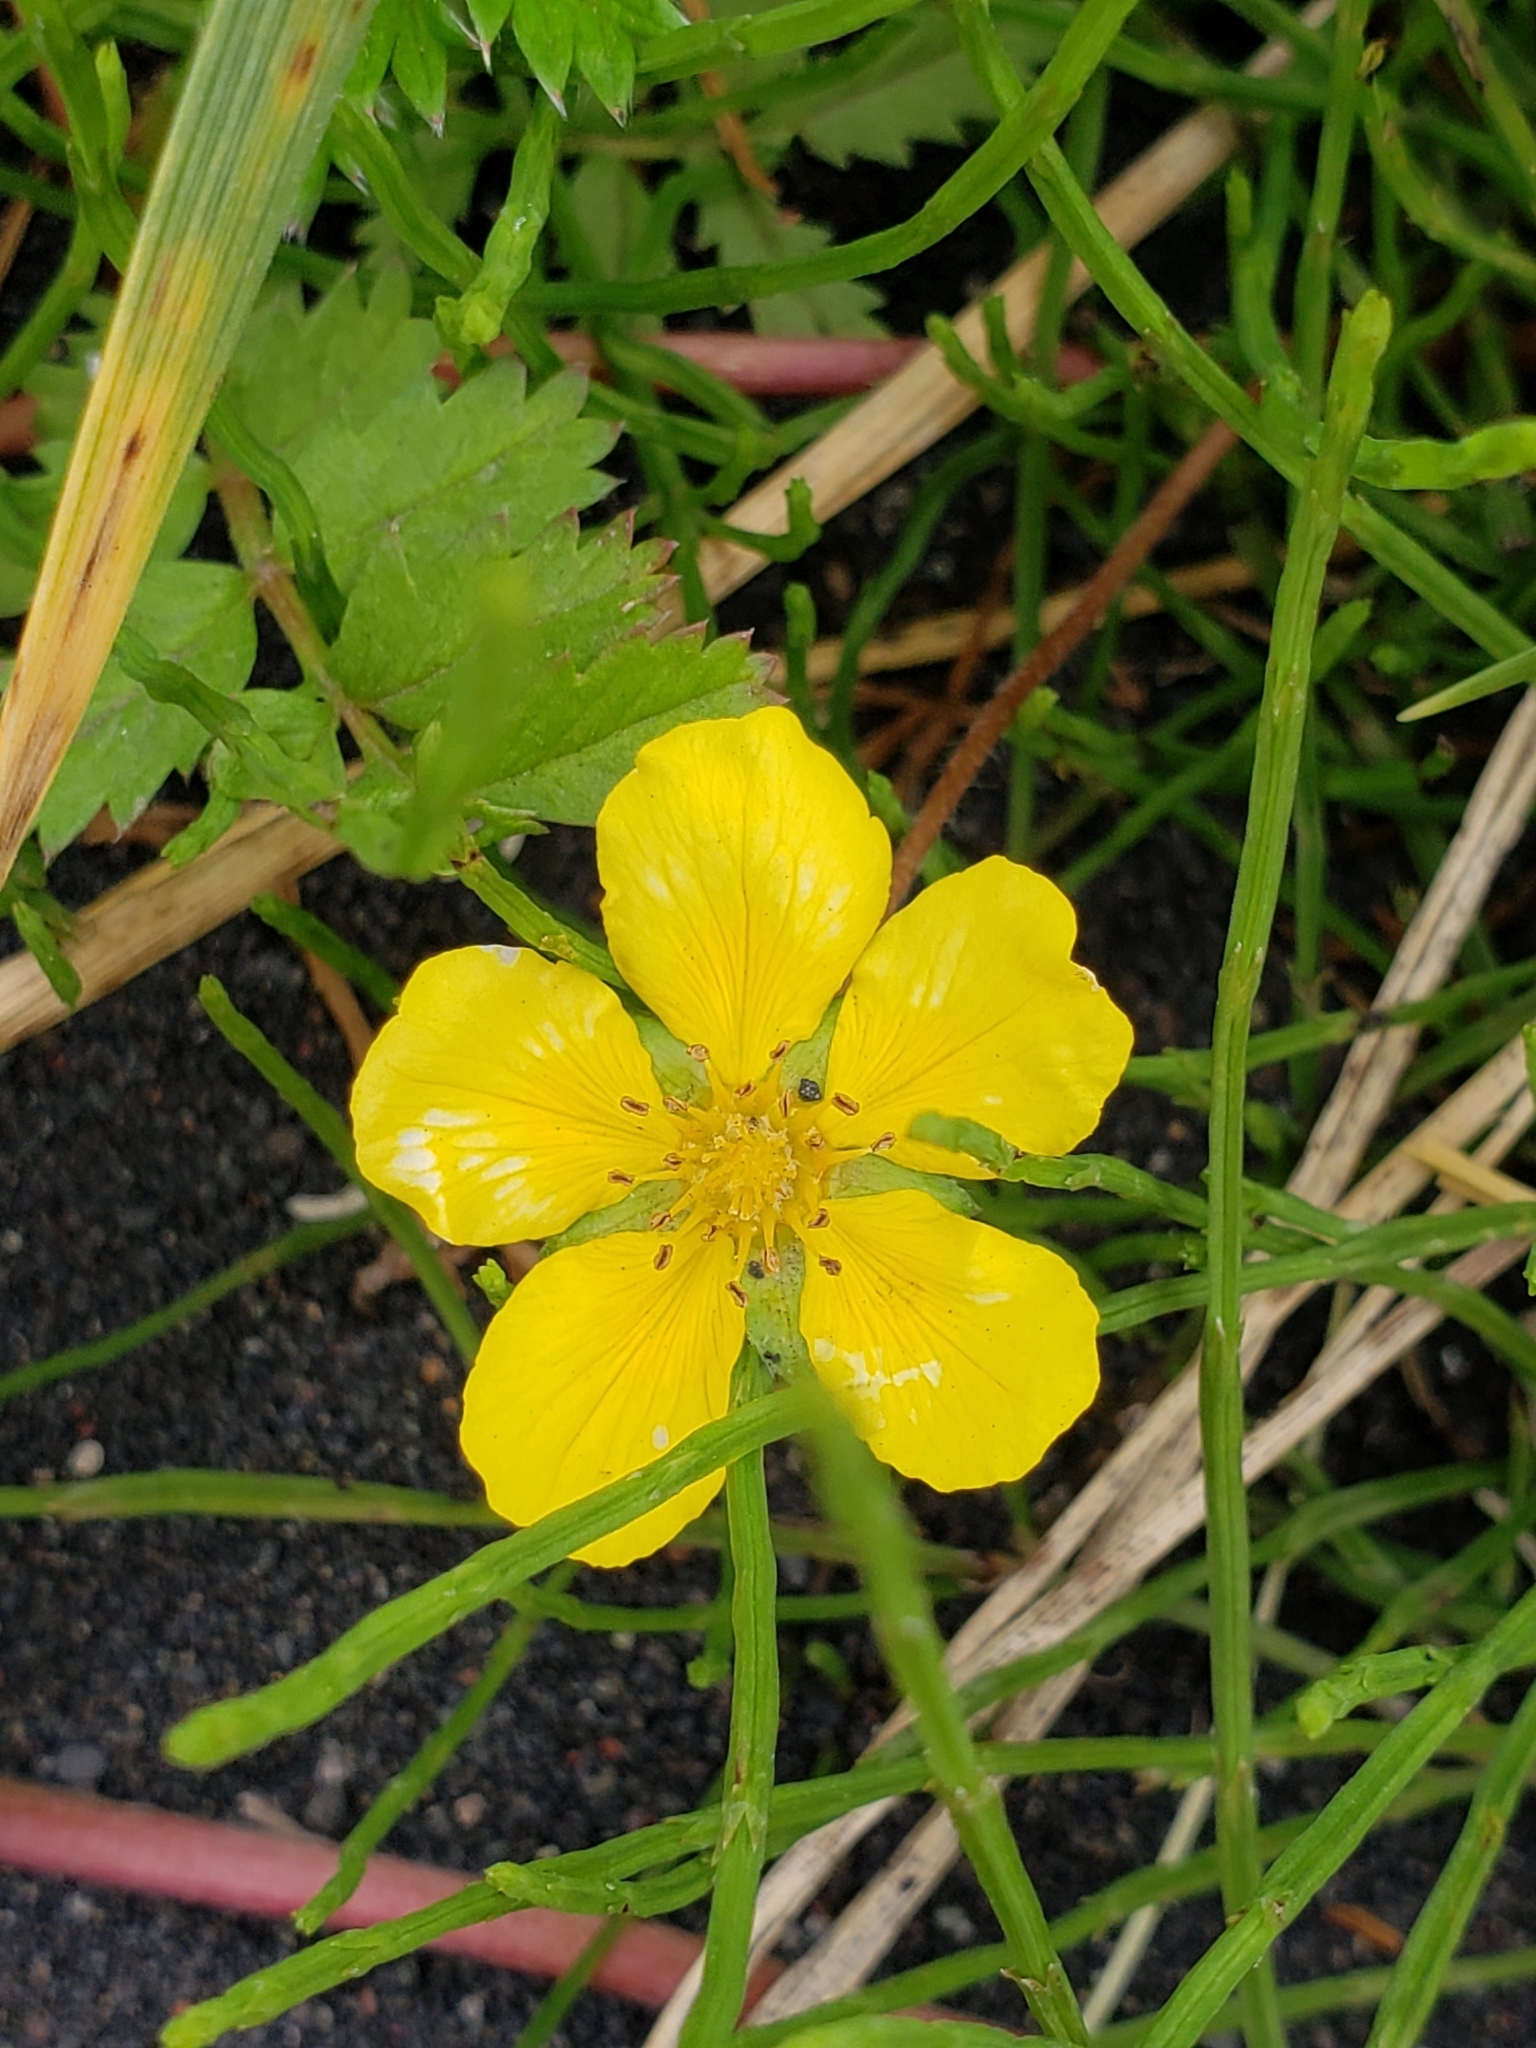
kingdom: Plantae
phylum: Tracheophyta
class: Magnoliopsida
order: Rosales
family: Rosaceae
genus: Argentina
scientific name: Argentina anserina
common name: Common silverweed
